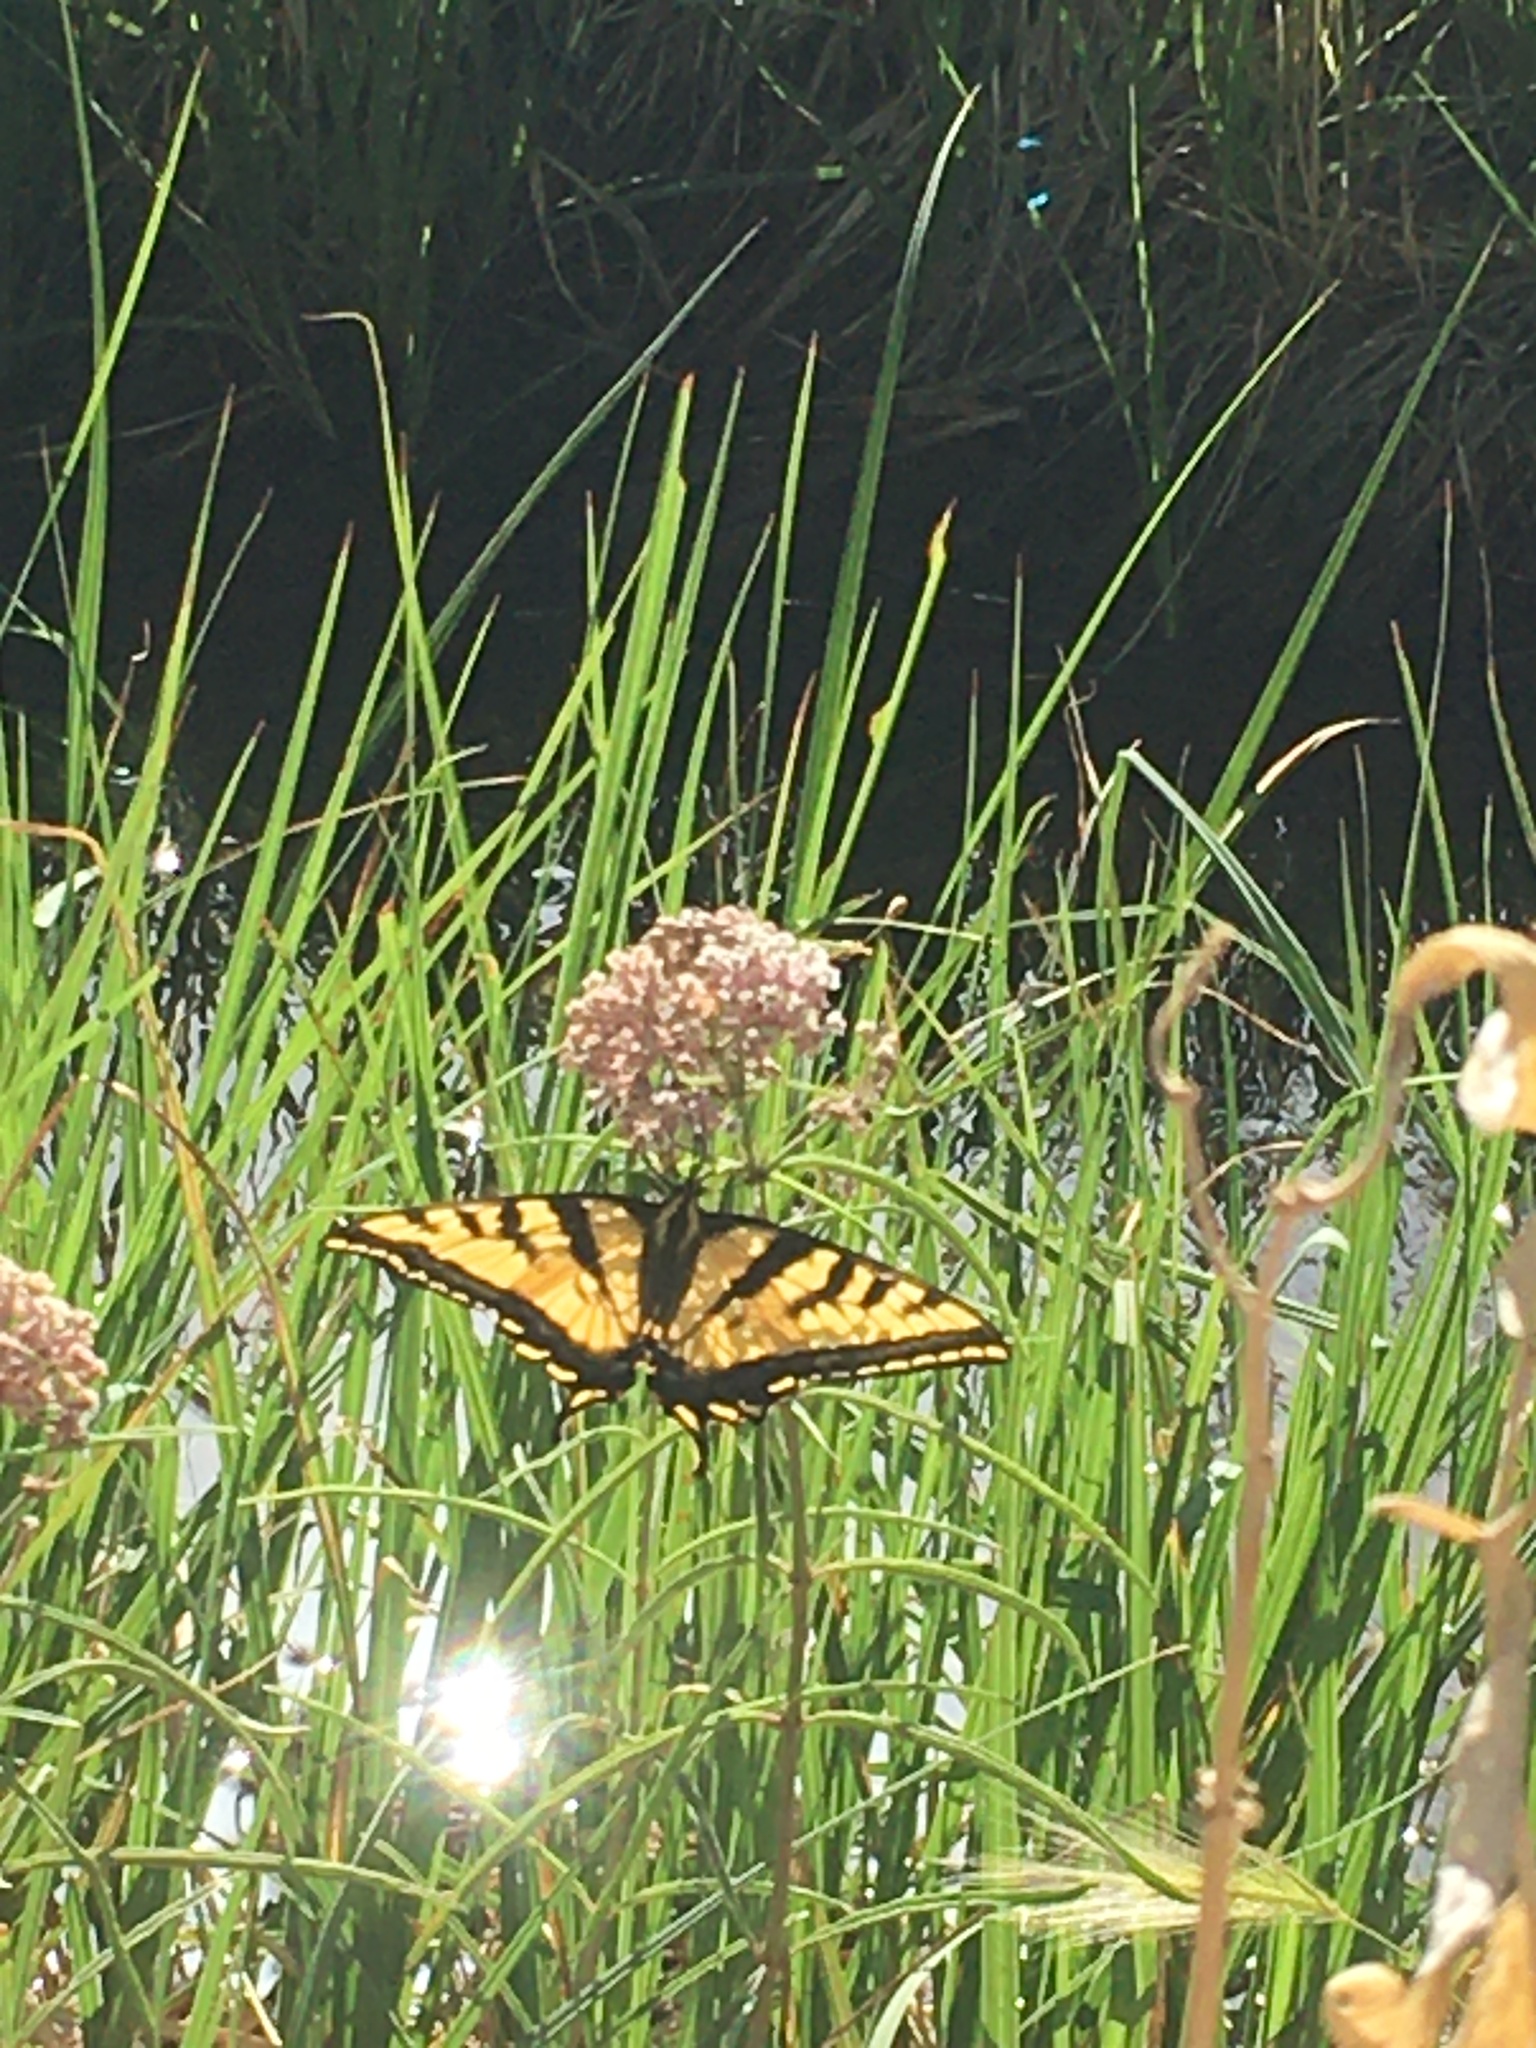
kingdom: Animalia
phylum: Arthropoda
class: Insecta
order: Lepidoptera
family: Papilionidae
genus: Papilio
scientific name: Papilio rutulus
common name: Western tiger swallowtail
